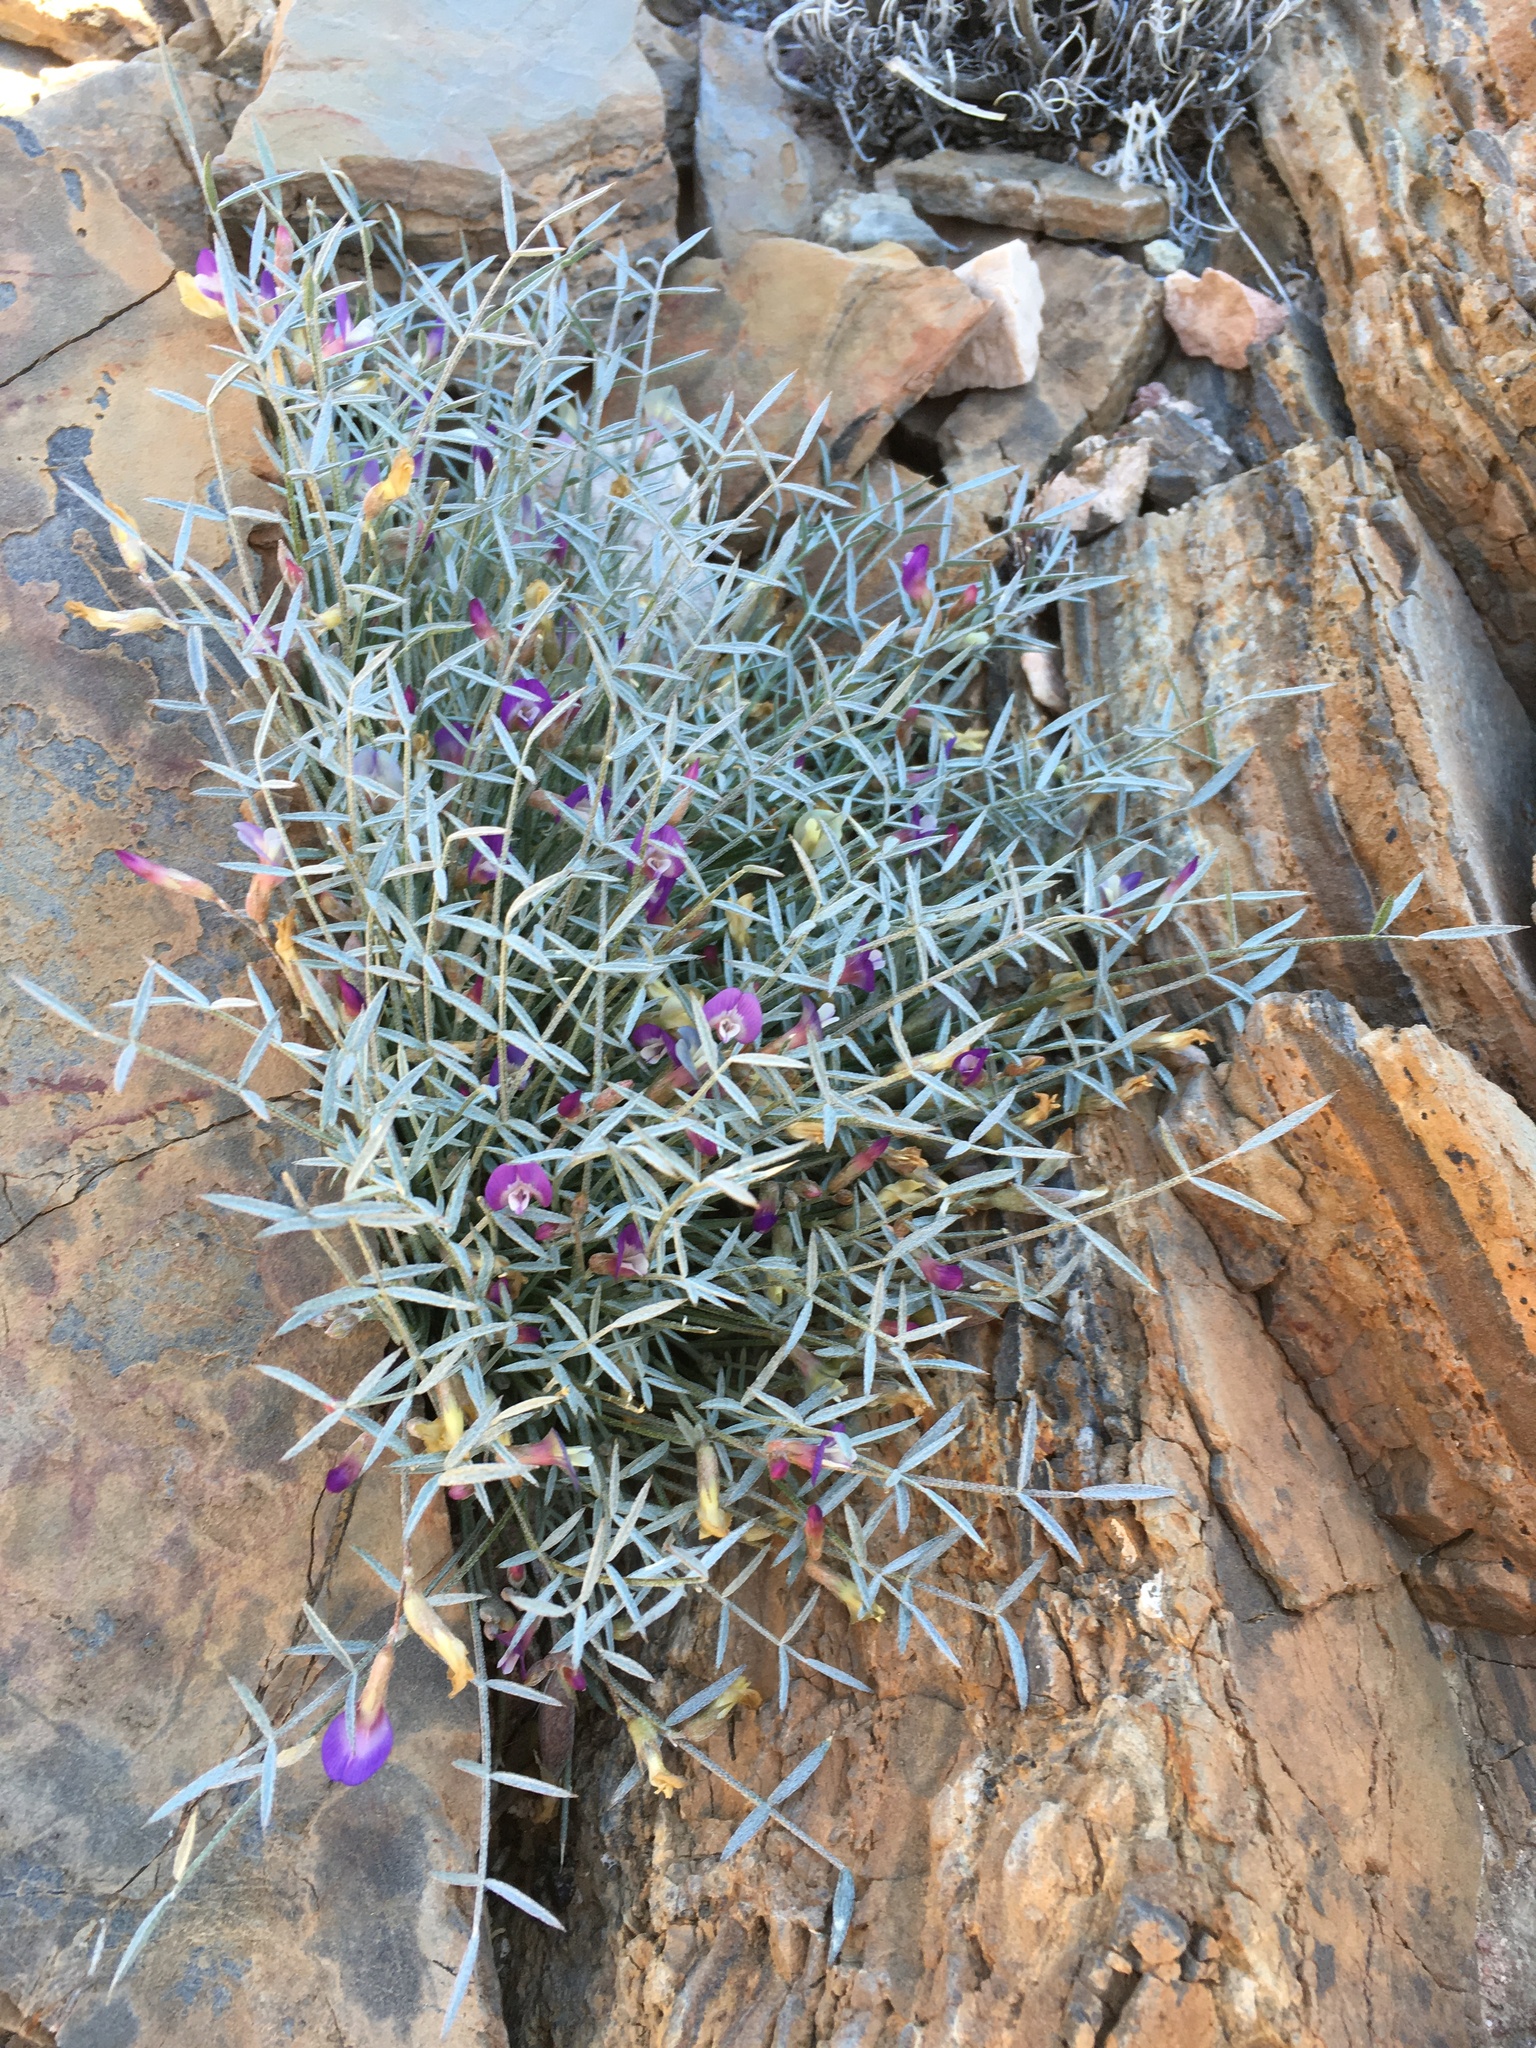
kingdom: Plantae
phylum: Tracheophyta
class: Magnoliopsida
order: Fabales
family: Fabaceae
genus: Astragalus
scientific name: Astragalus panamintensis
